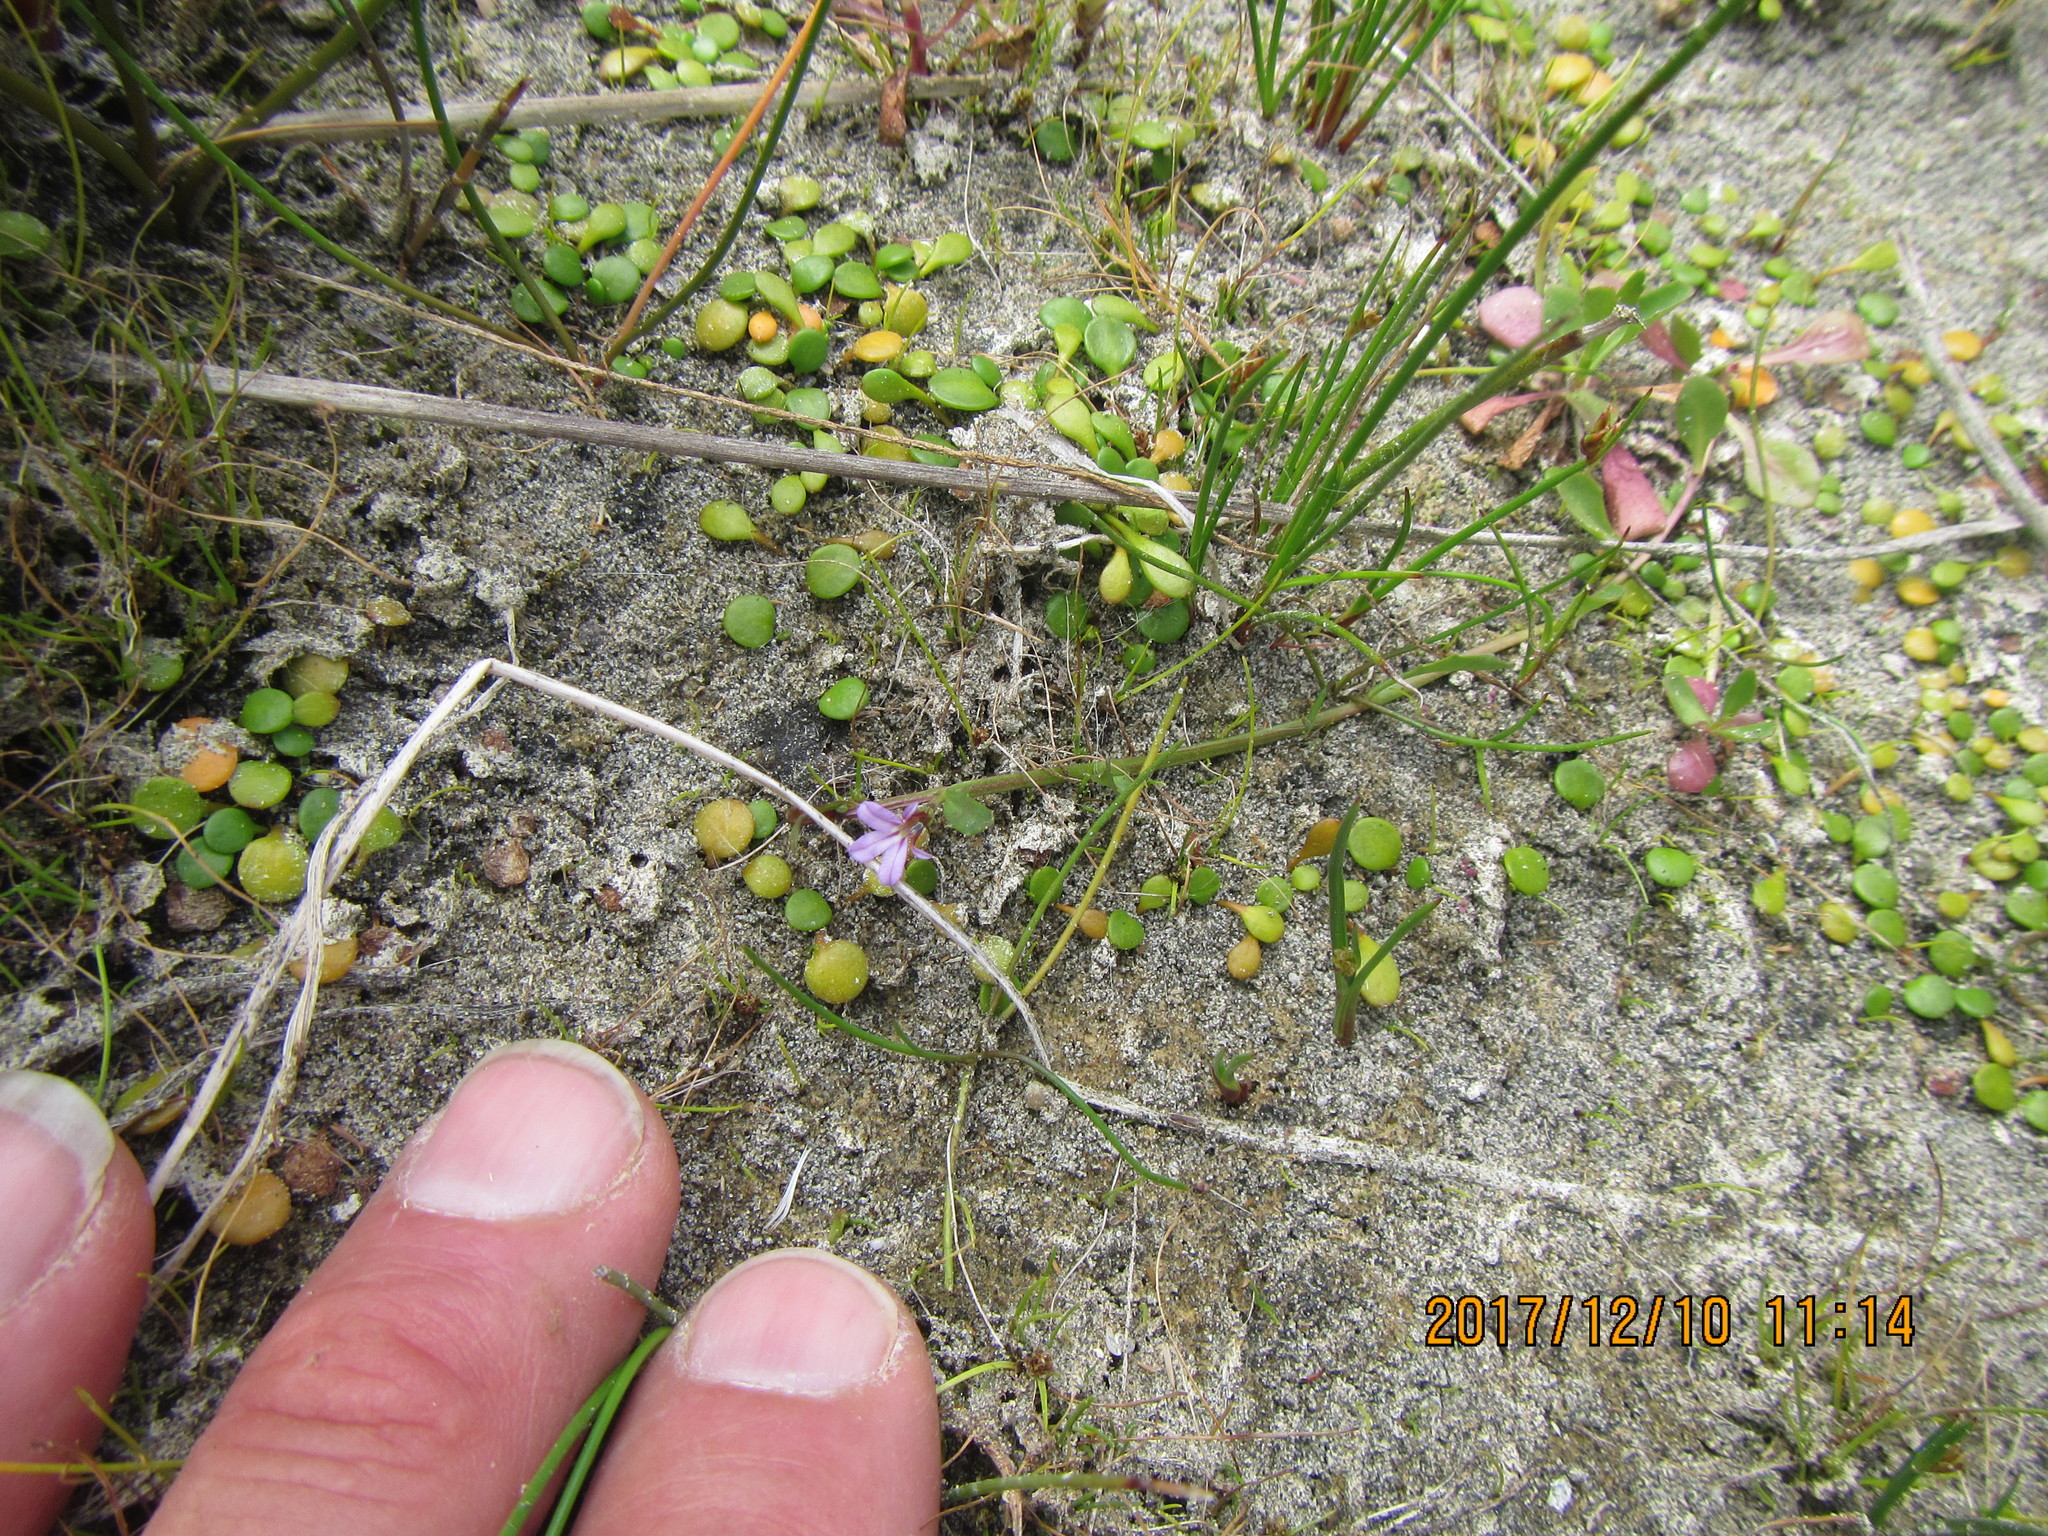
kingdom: Plantae
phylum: Tracheophyta
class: Magnoliopsida
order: Asterales
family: Campanulaceae
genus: Lobelia
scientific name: Lobelia anceps
